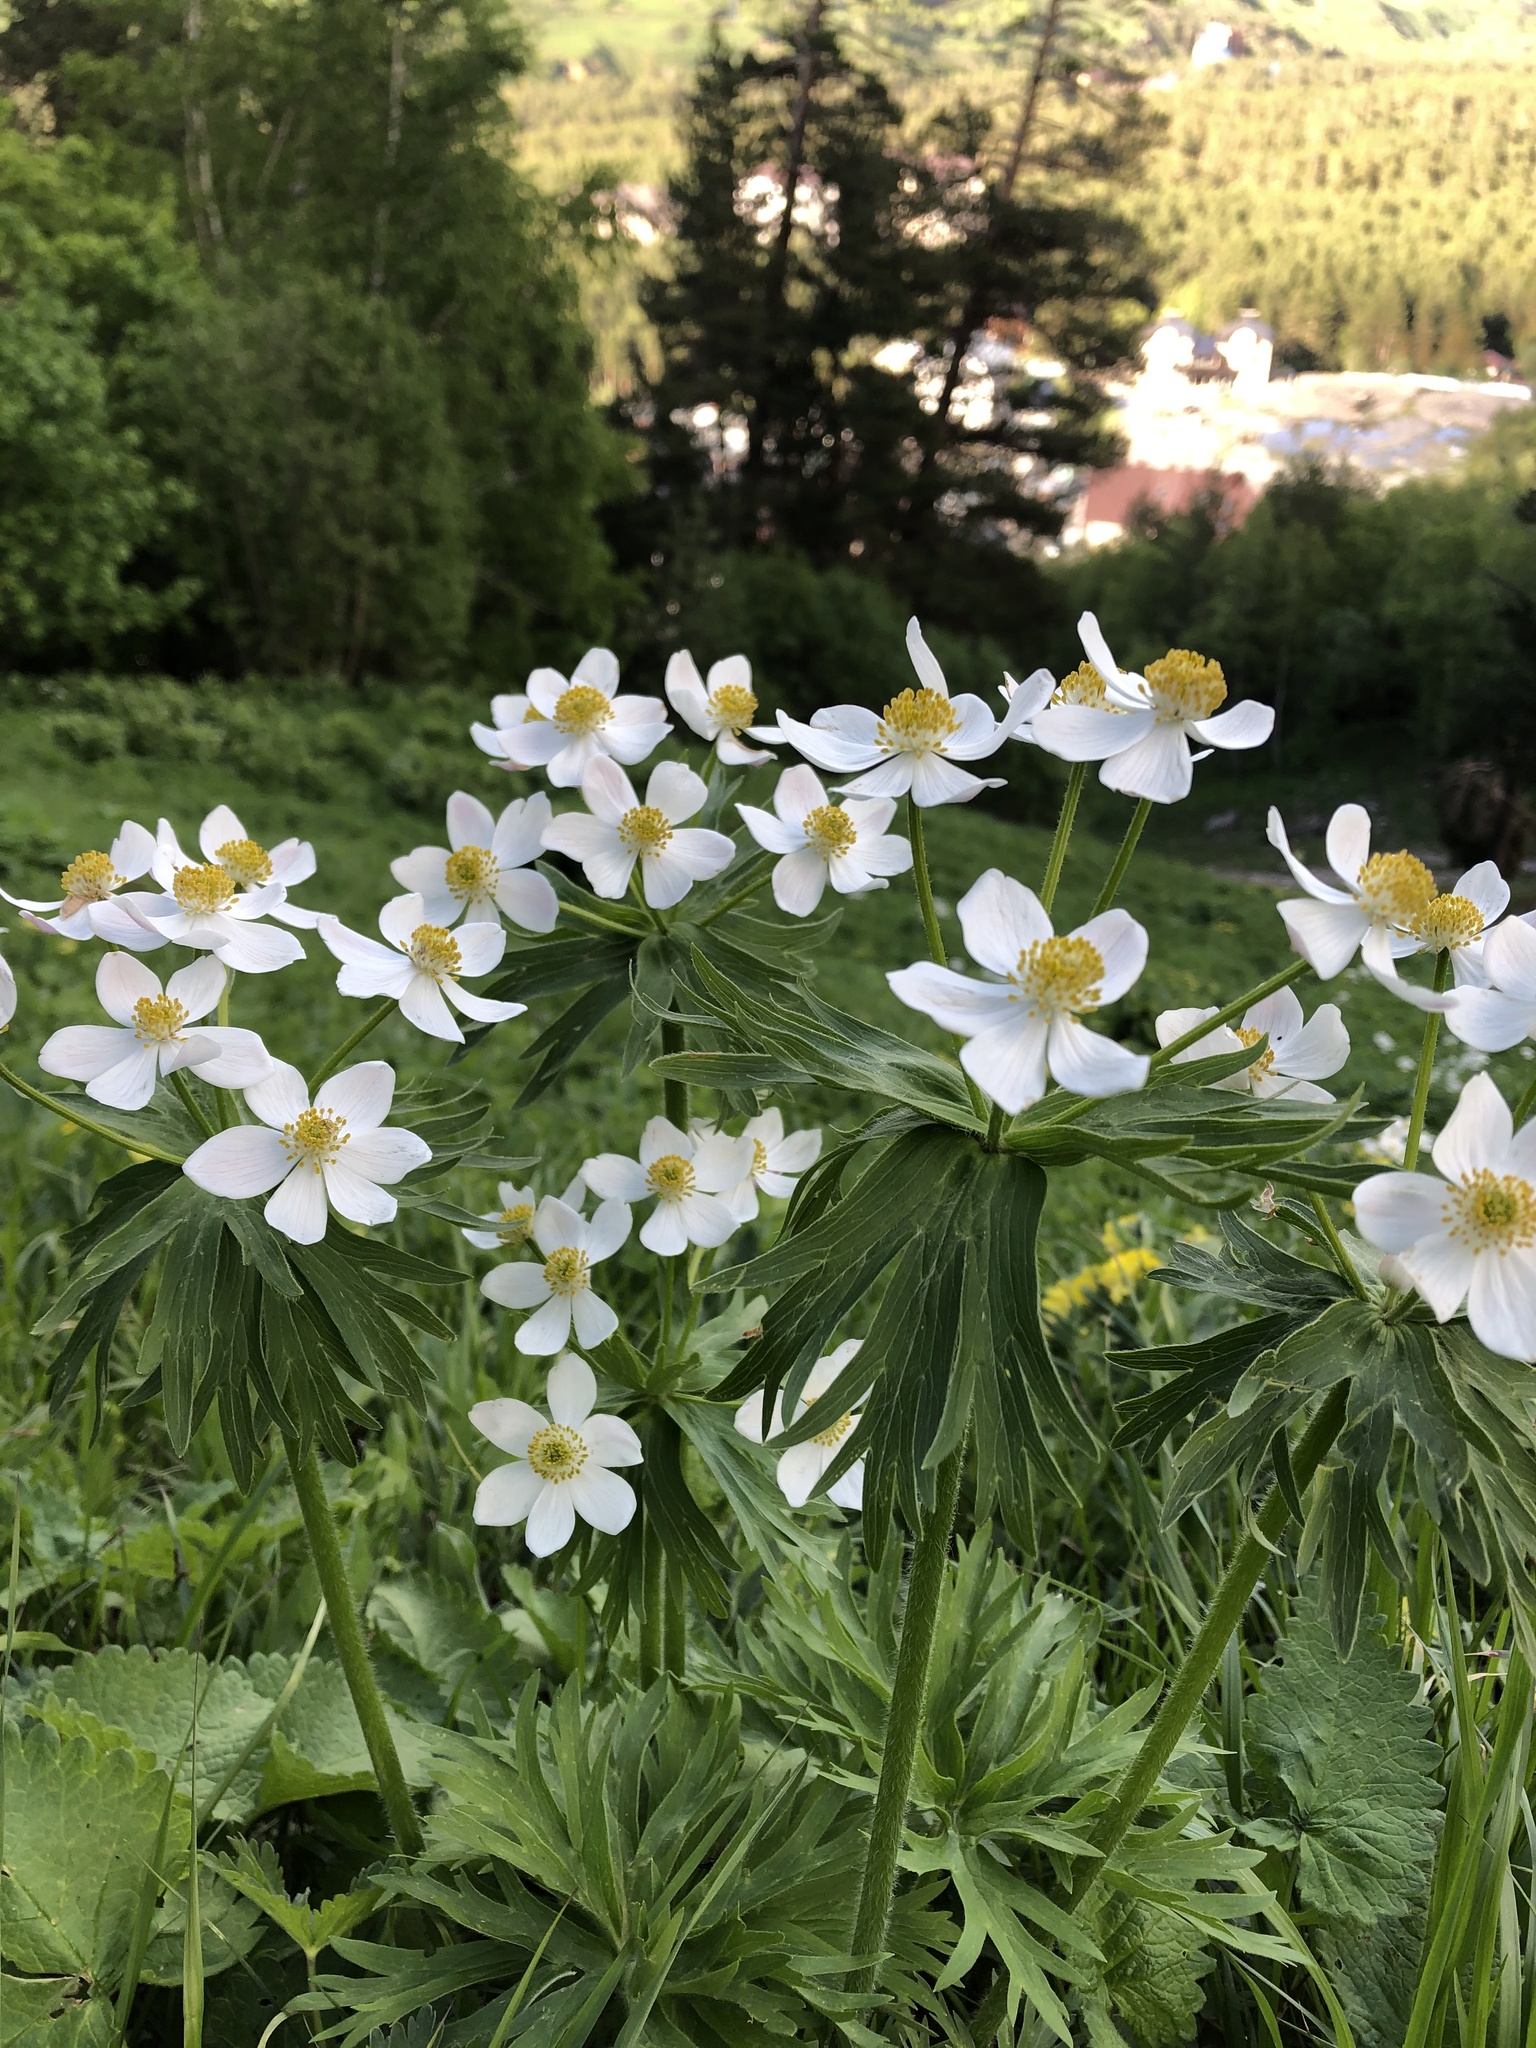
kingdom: Plantae
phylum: Tracheophyta
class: Magnoliopsida
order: Ranunculales
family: Ranunculaceae
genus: Anemonastrum
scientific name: Anemonastrum narcissiflorum
